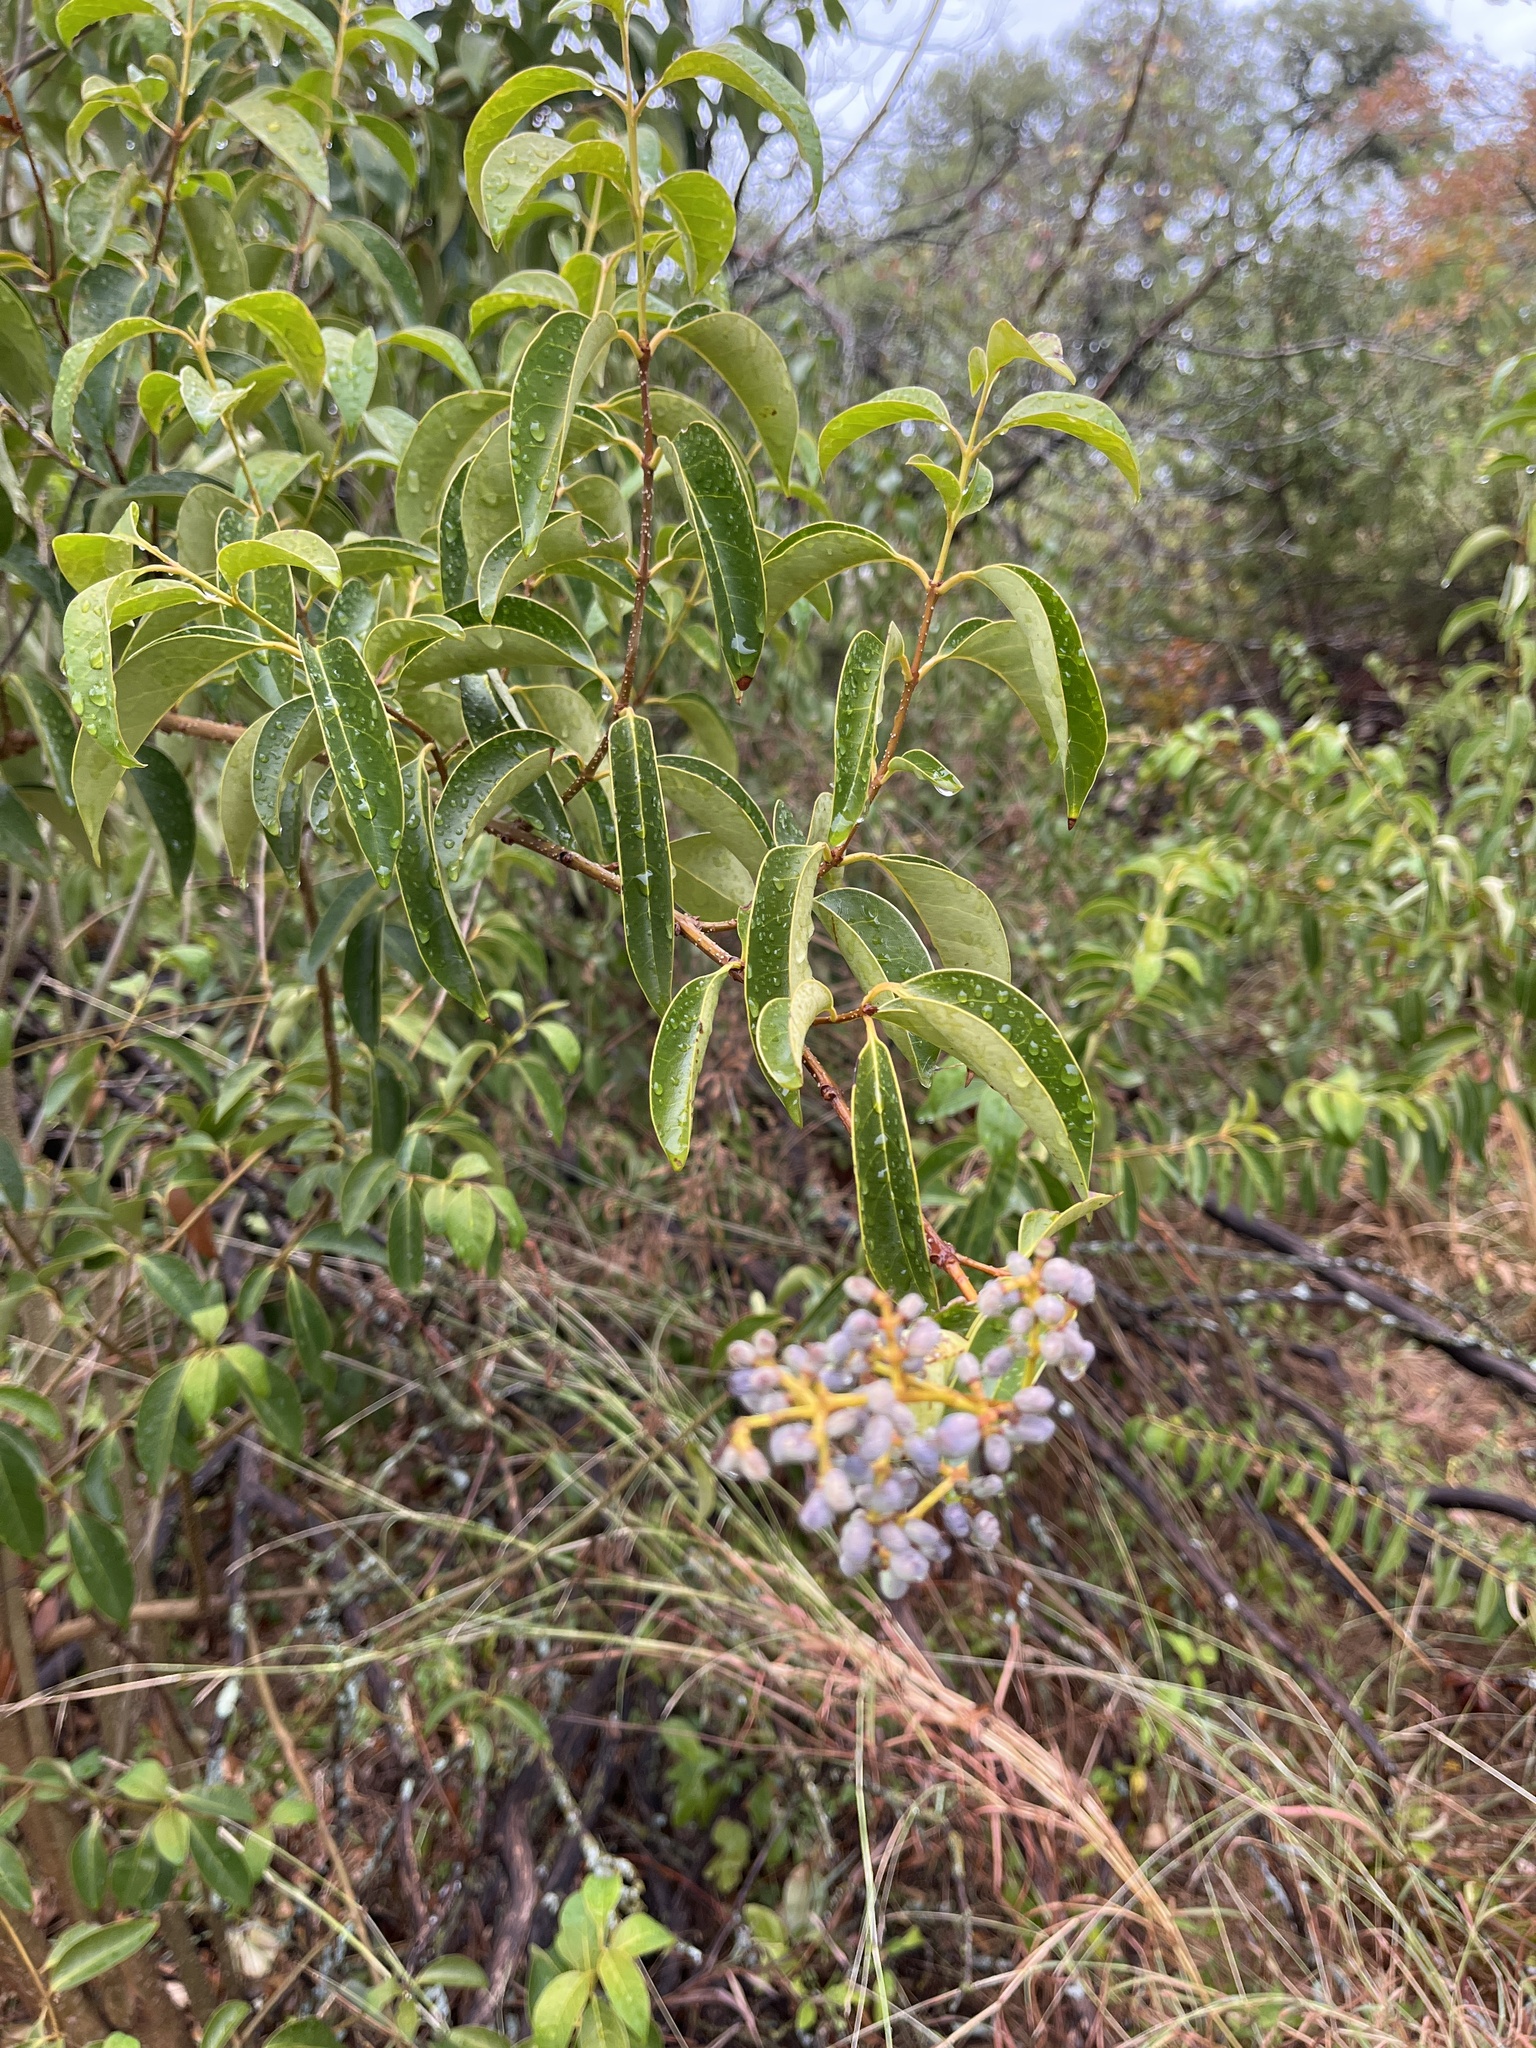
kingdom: Plantae
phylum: Tracheophyta
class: Magnoliopsida
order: Lamiales
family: Oleaceae
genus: Ligustrum
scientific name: Ligustrum lucidum
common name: Glossy privet
